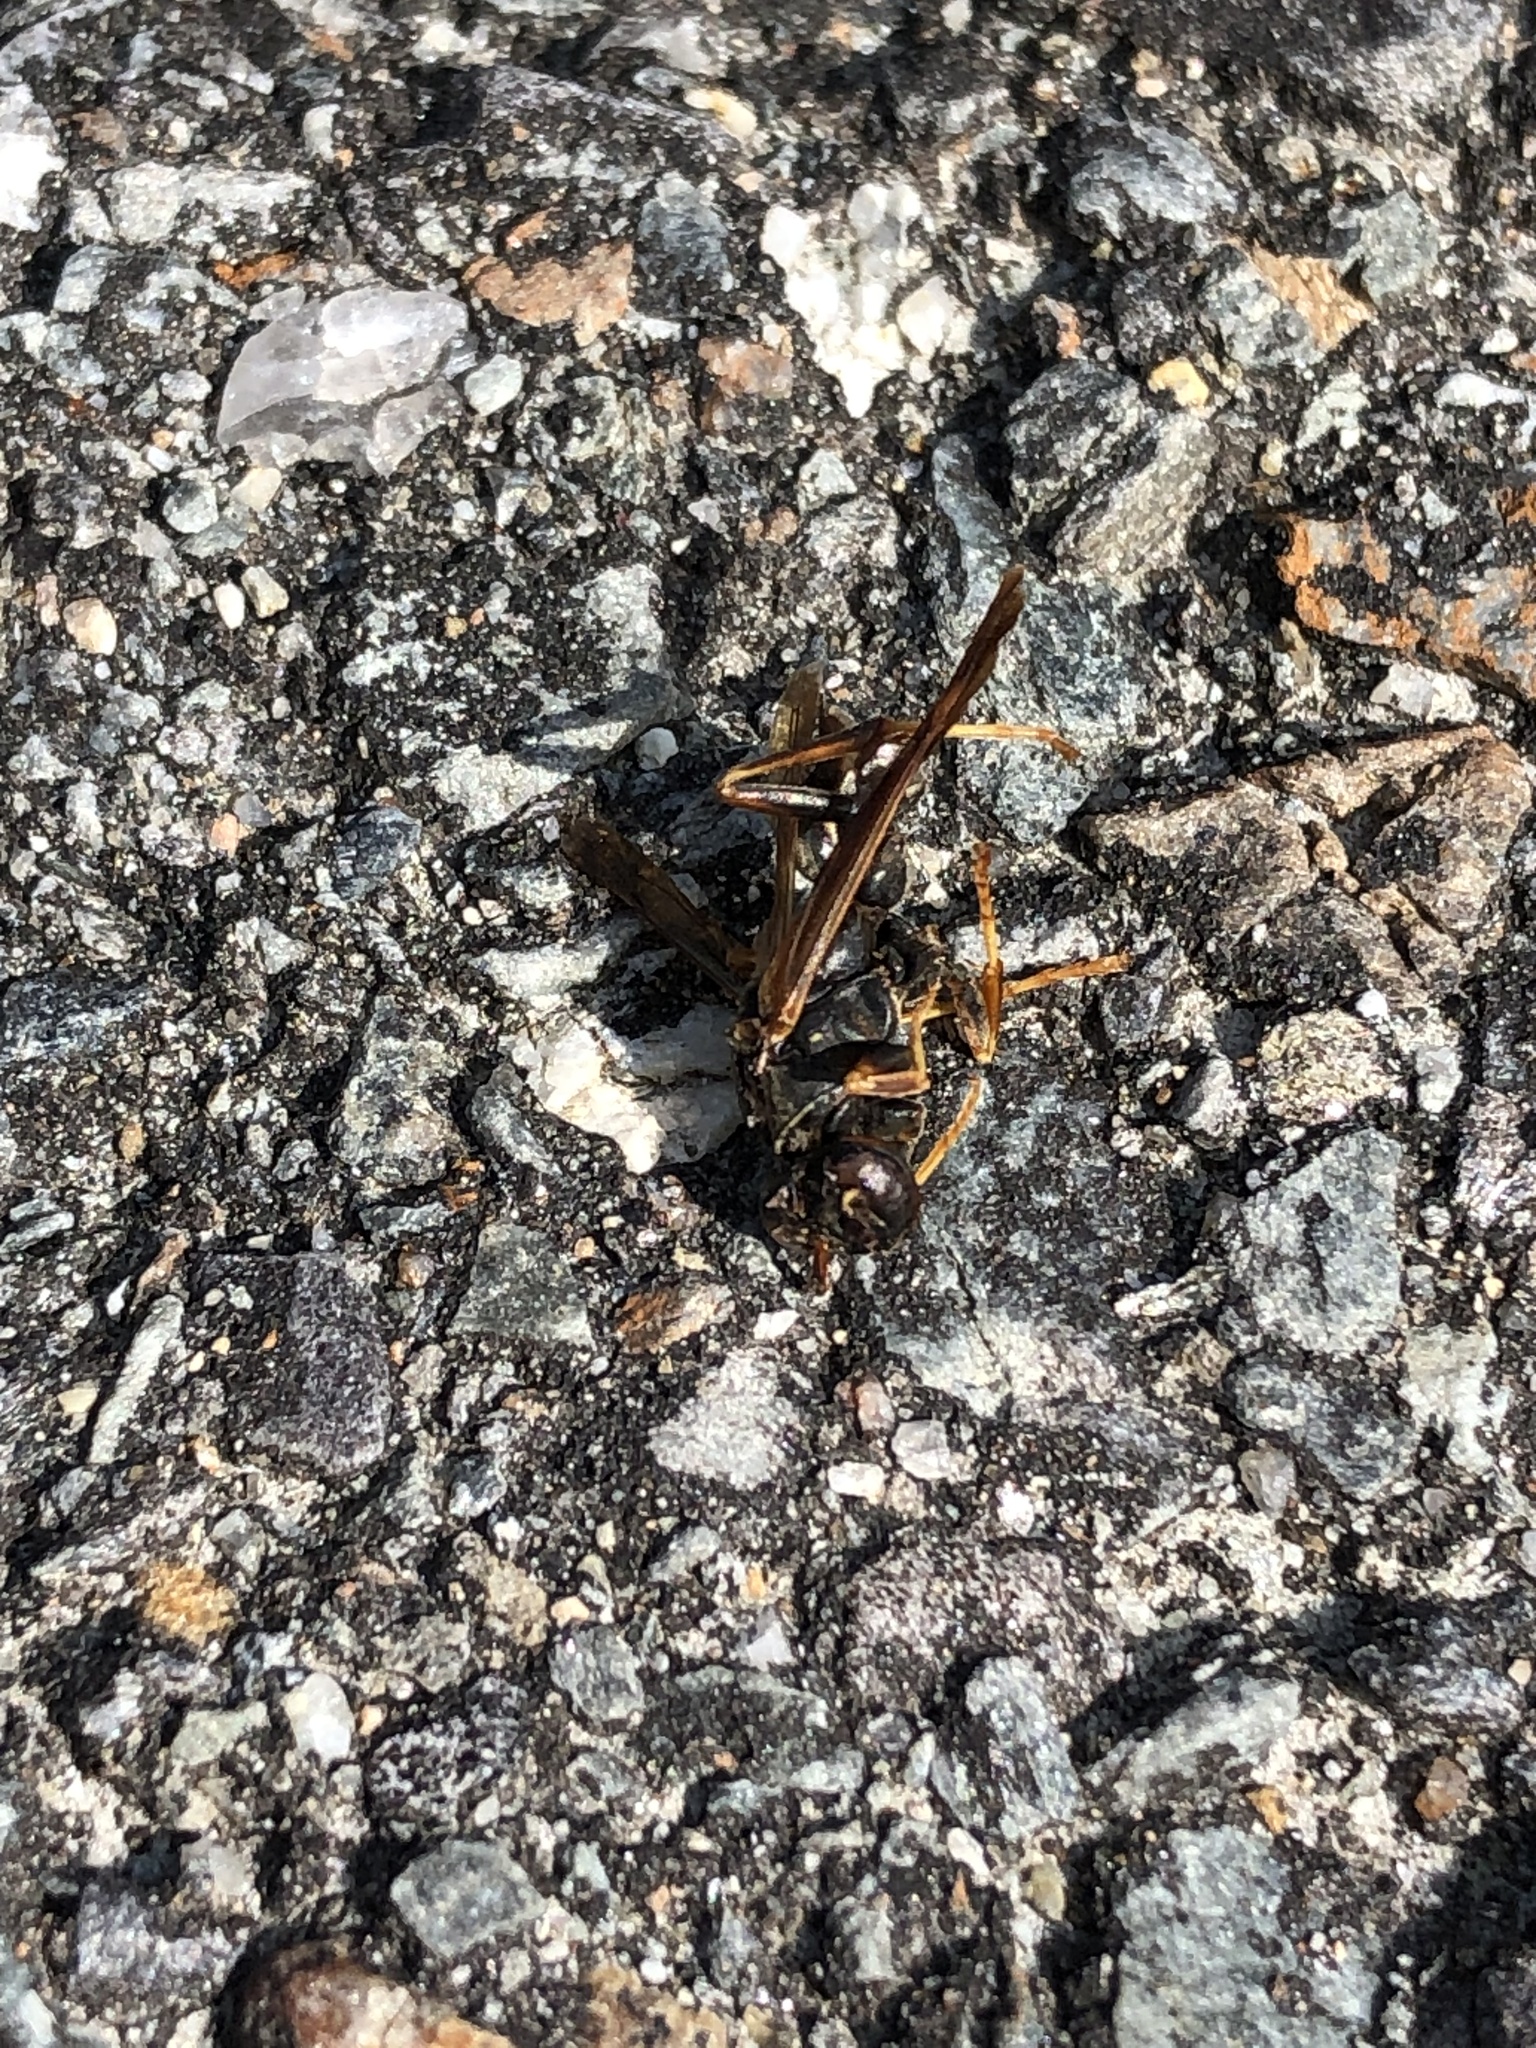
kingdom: Animalia
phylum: Arthropoda
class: Insecta
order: Hymenoptera
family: Vespidae
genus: Fuscopolistes
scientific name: Fuscopolistes
